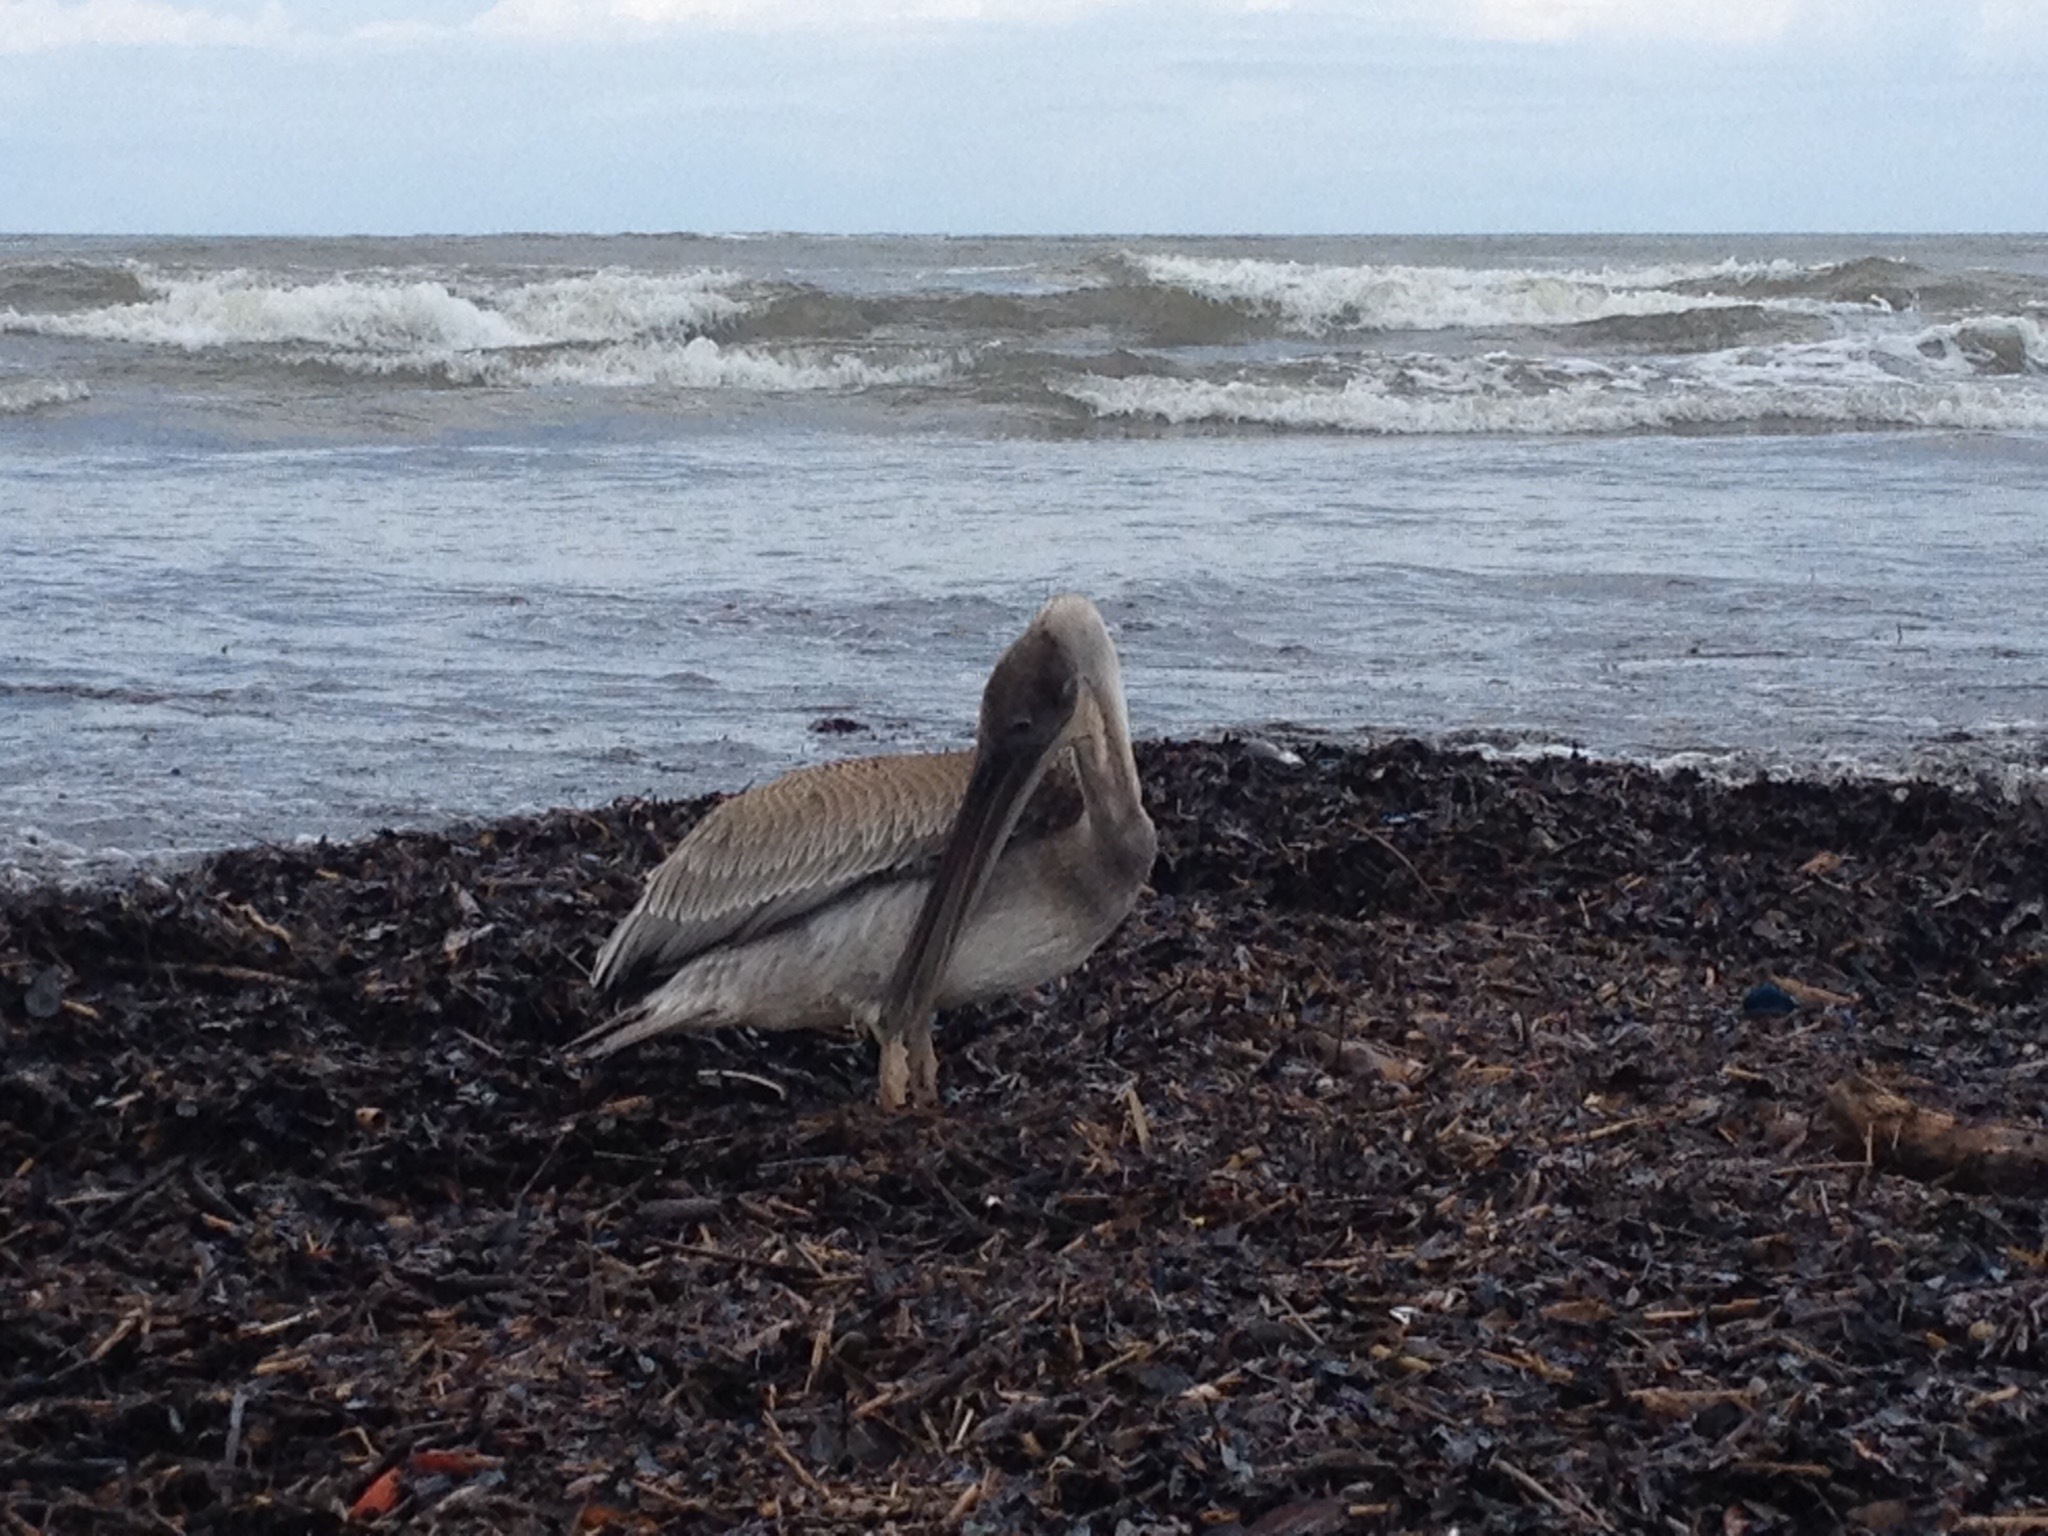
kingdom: Animalia
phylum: Chordata
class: Aves
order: Pelecaniformes
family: Pelecanidae
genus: Pelecanus
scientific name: Pelecanus occidentalis
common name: Brown pelican
